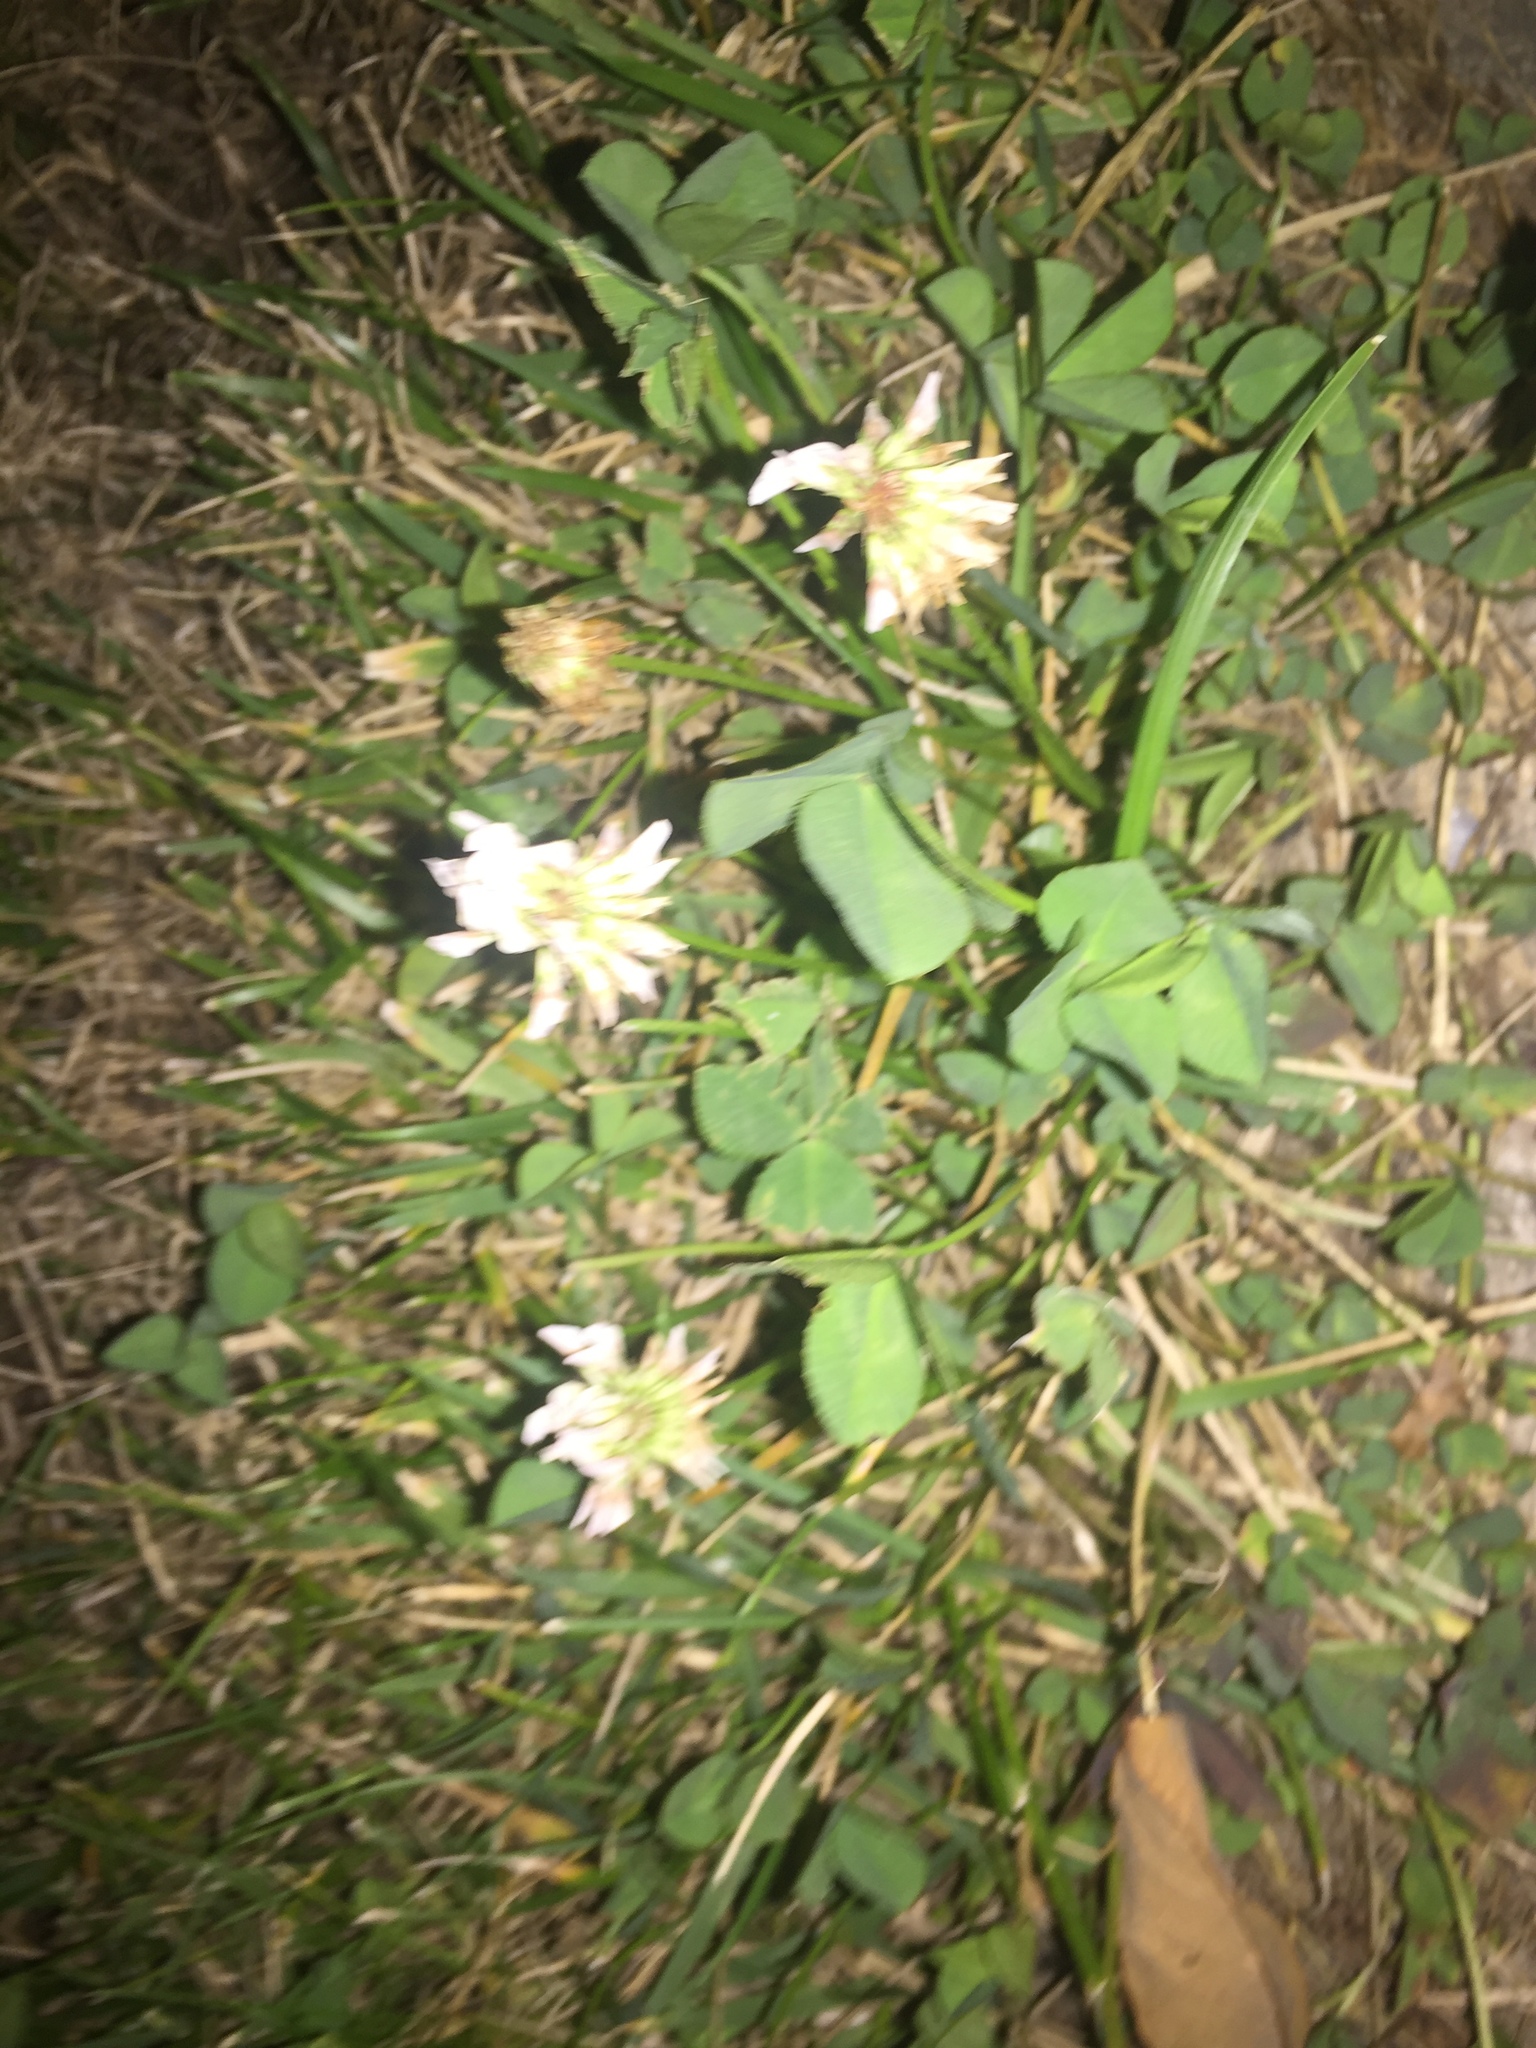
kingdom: Plantae
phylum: Tracheophyta
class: Magnoliopsida
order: Fabales
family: Fabaceae
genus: Trifolium
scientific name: Trifolium repens
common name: White clover
